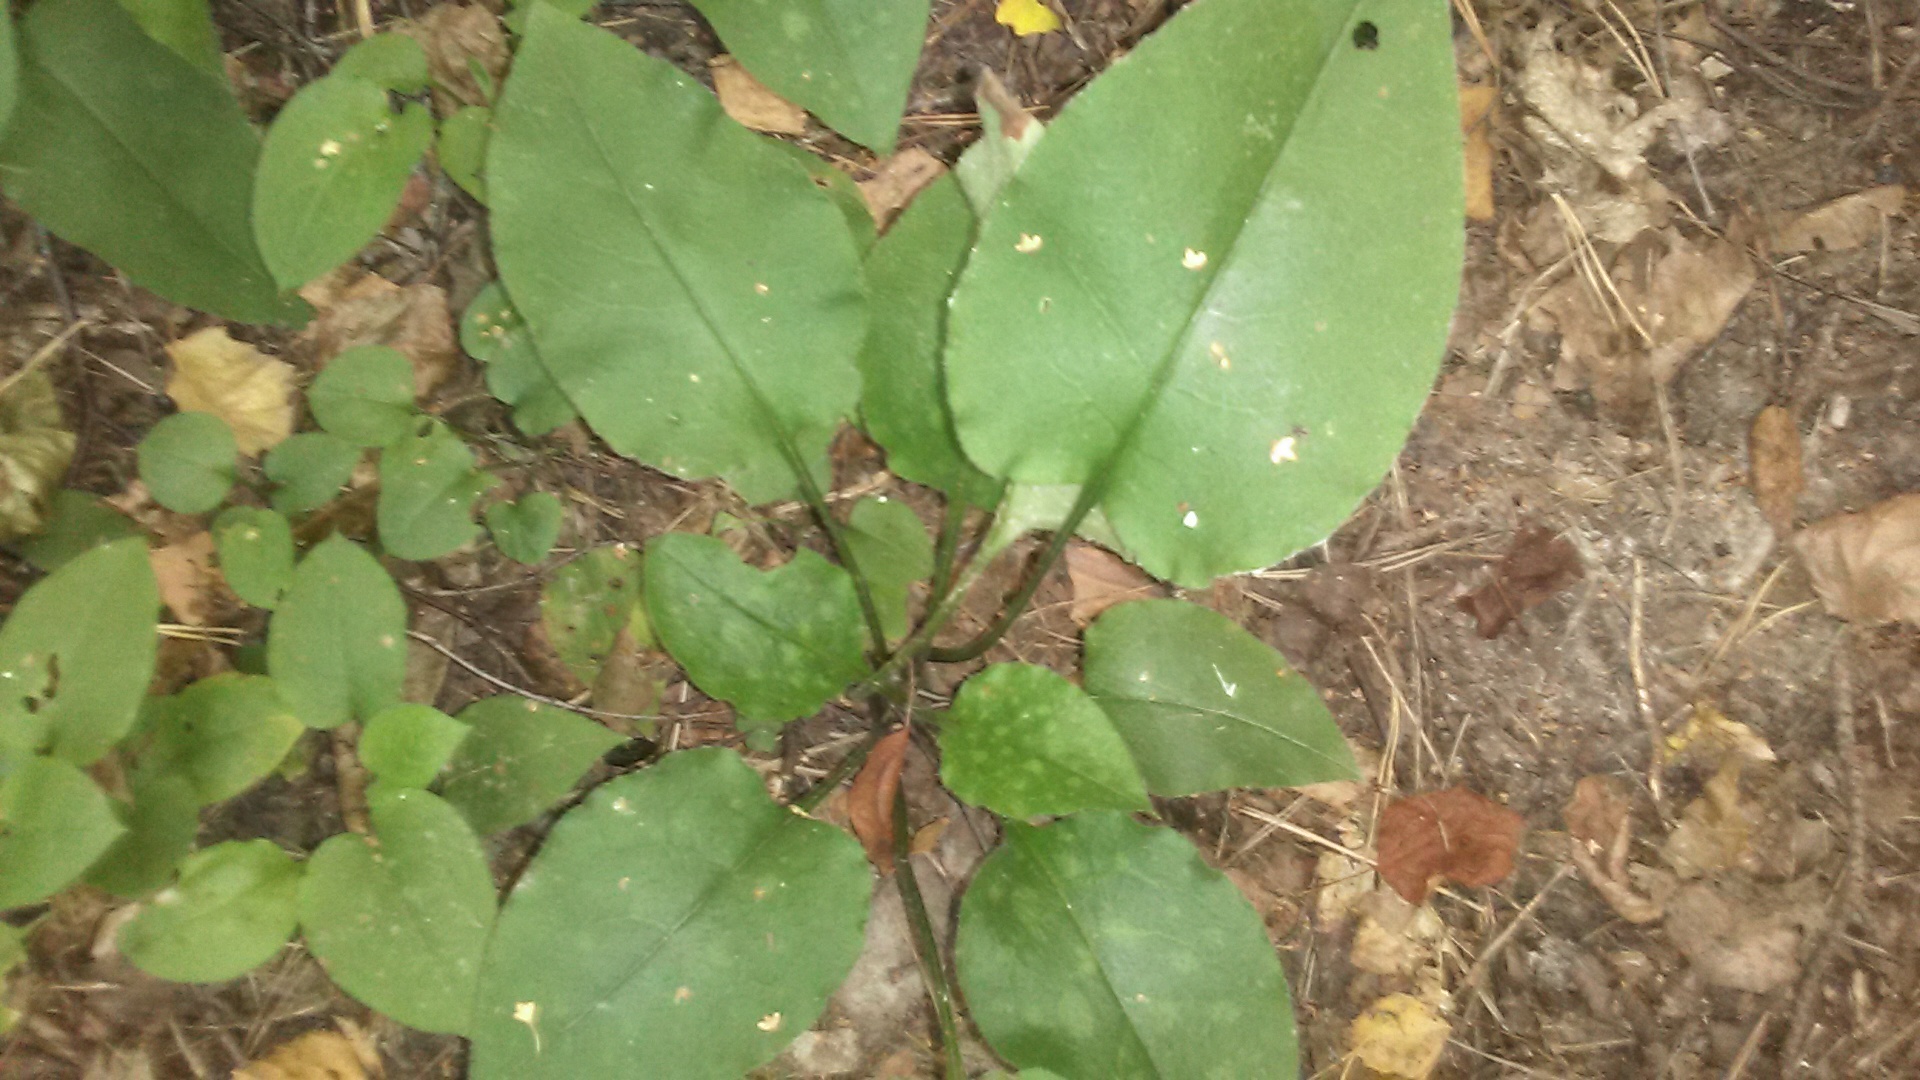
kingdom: Plantae
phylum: Tracheophyta
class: Magnoliopsida
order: Boraginales
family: Boraginaceae
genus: Pulmonaria
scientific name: Pulmonaria obscura
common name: Suffolk lungwort
